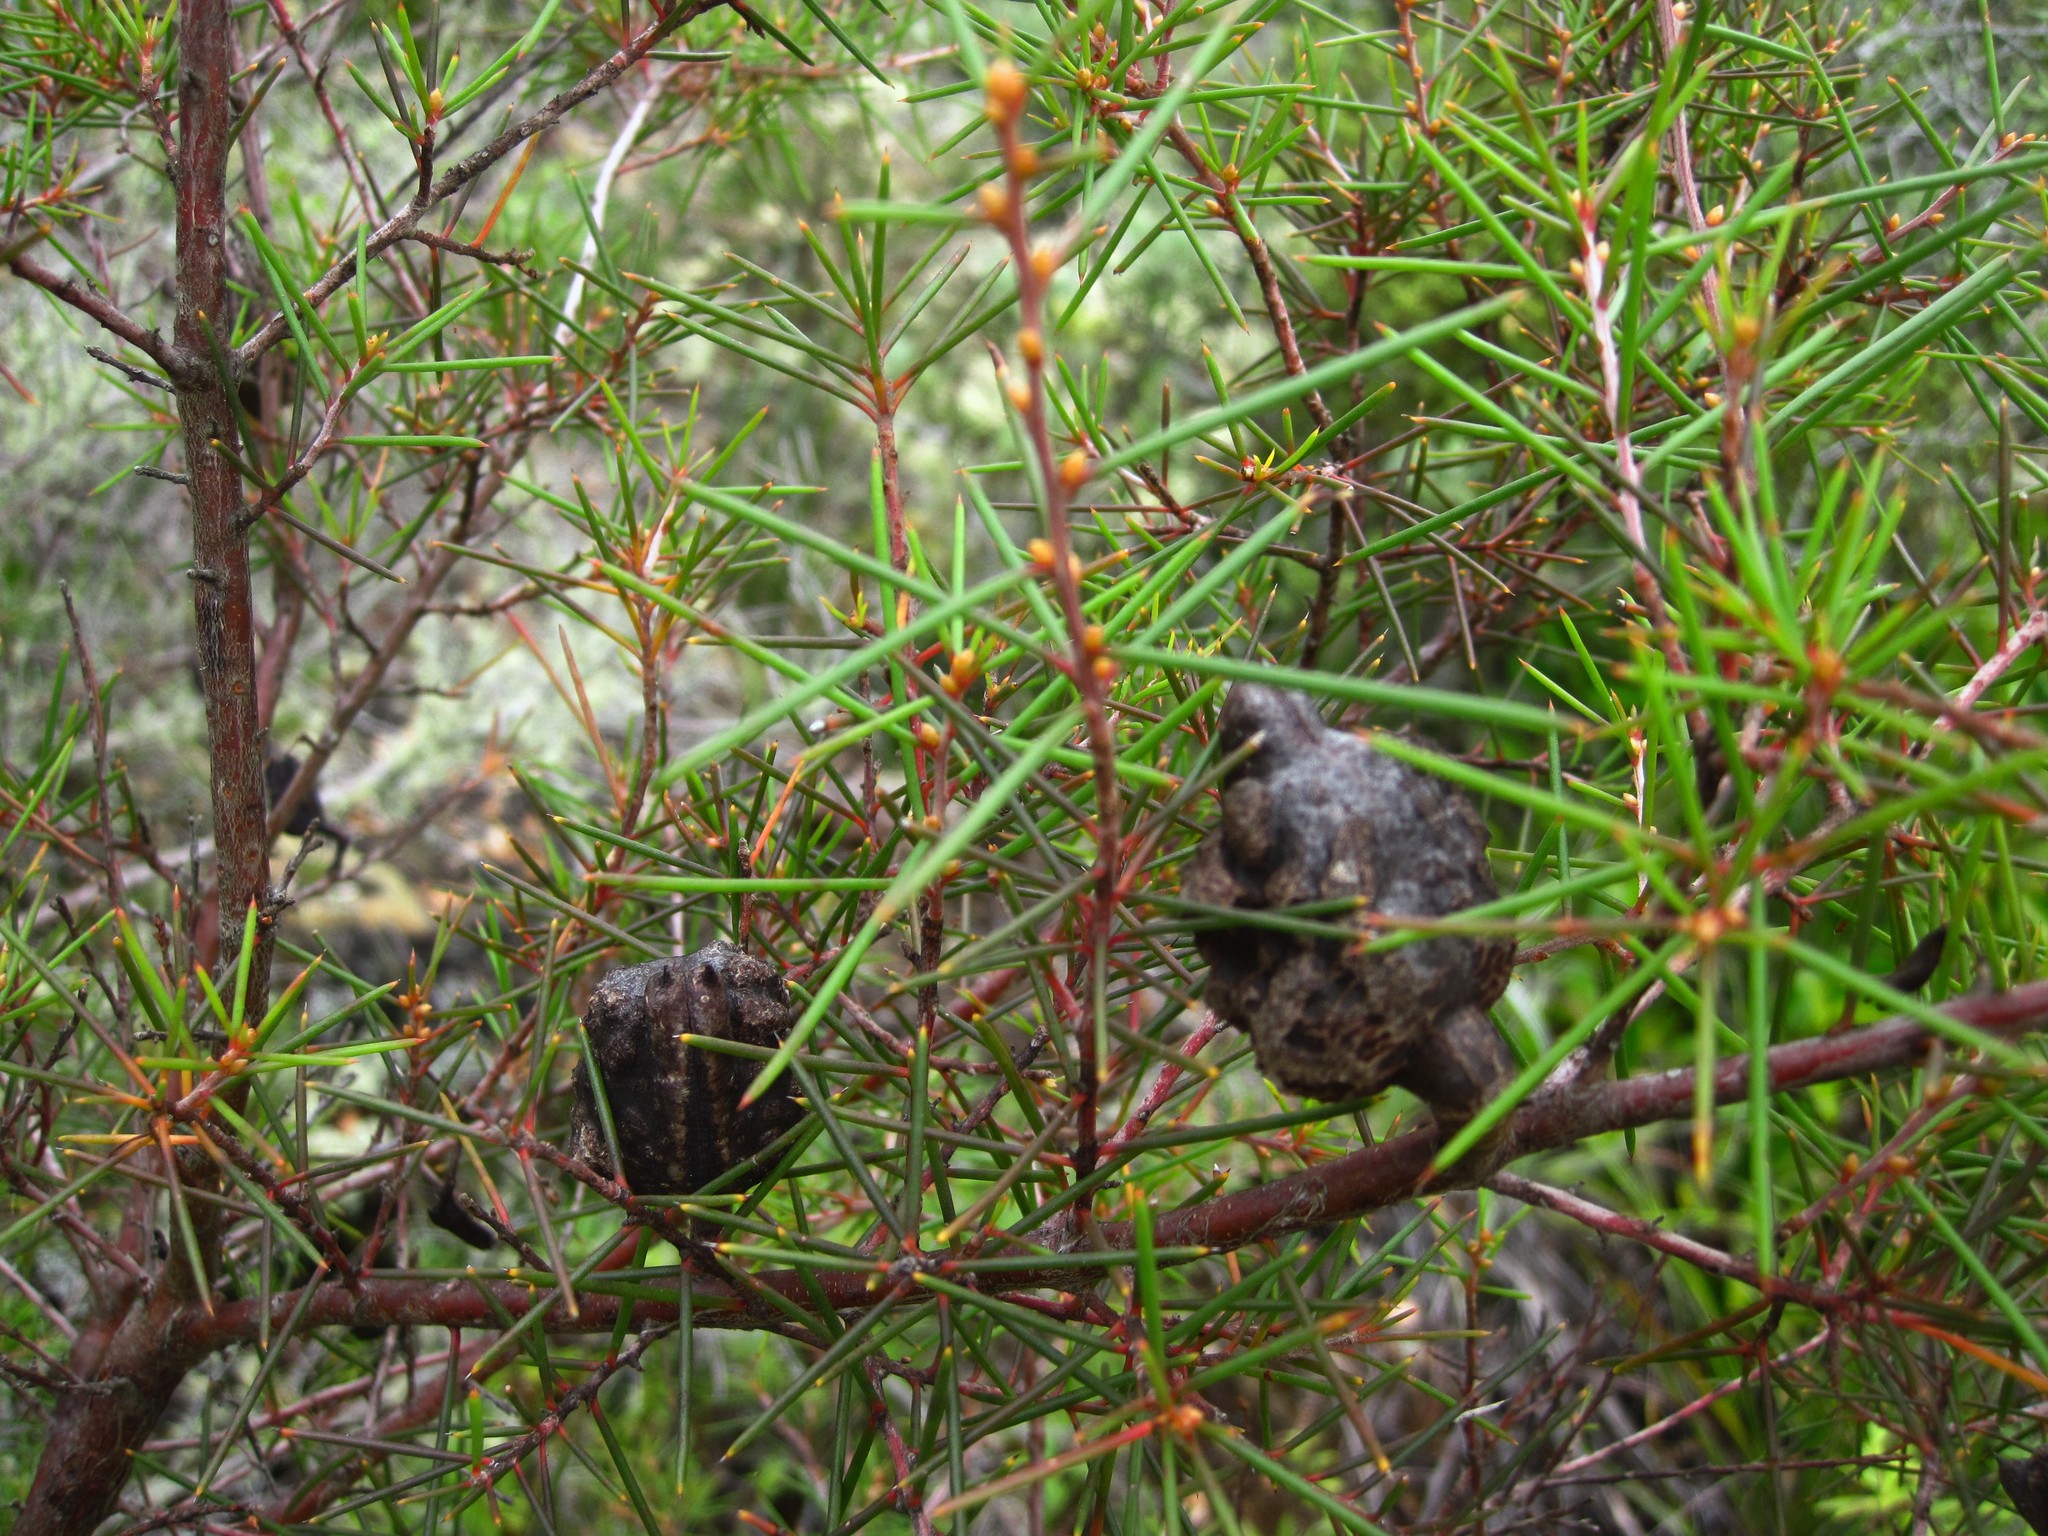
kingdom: Plantae
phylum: Tracheophyta
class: Magnoliopsida
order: Proteales
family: Proteaceae
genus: Hakea
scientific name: Hakea sericea
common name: Needle bush
